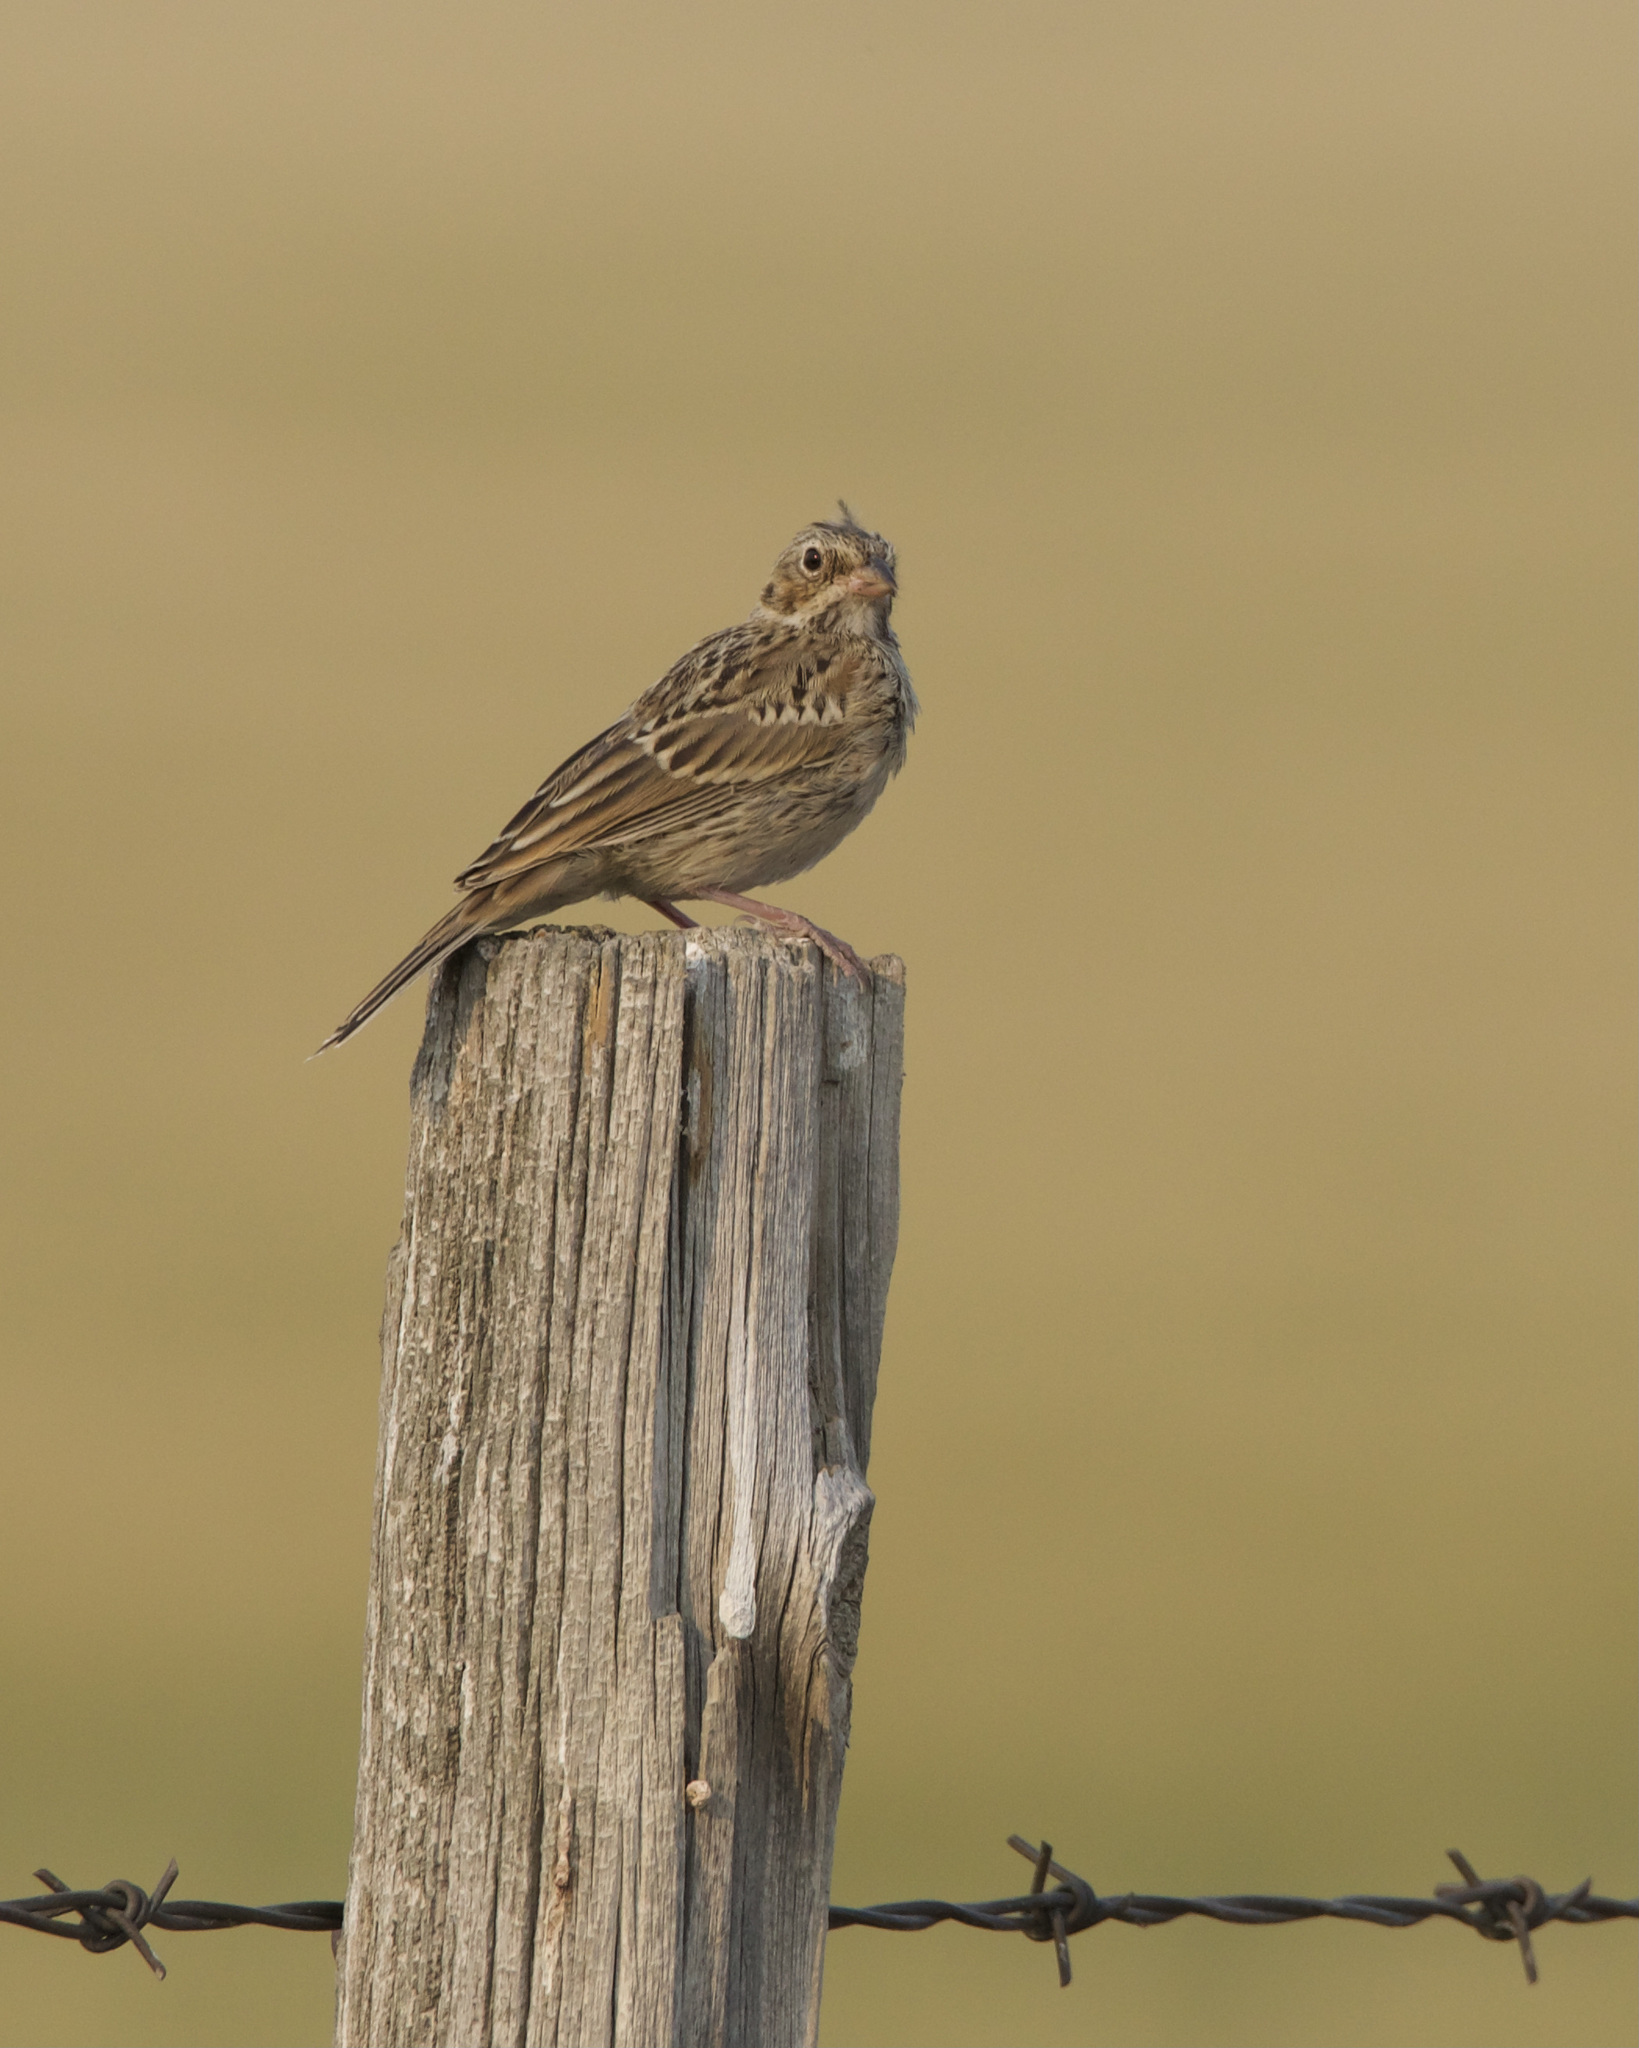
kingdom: Animalia
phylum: Chordata
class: Aves
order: Passeriformes
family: Passerellidae
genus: Pooecetes
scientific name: Pooecetes gramineus
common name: Vesper sparrow
